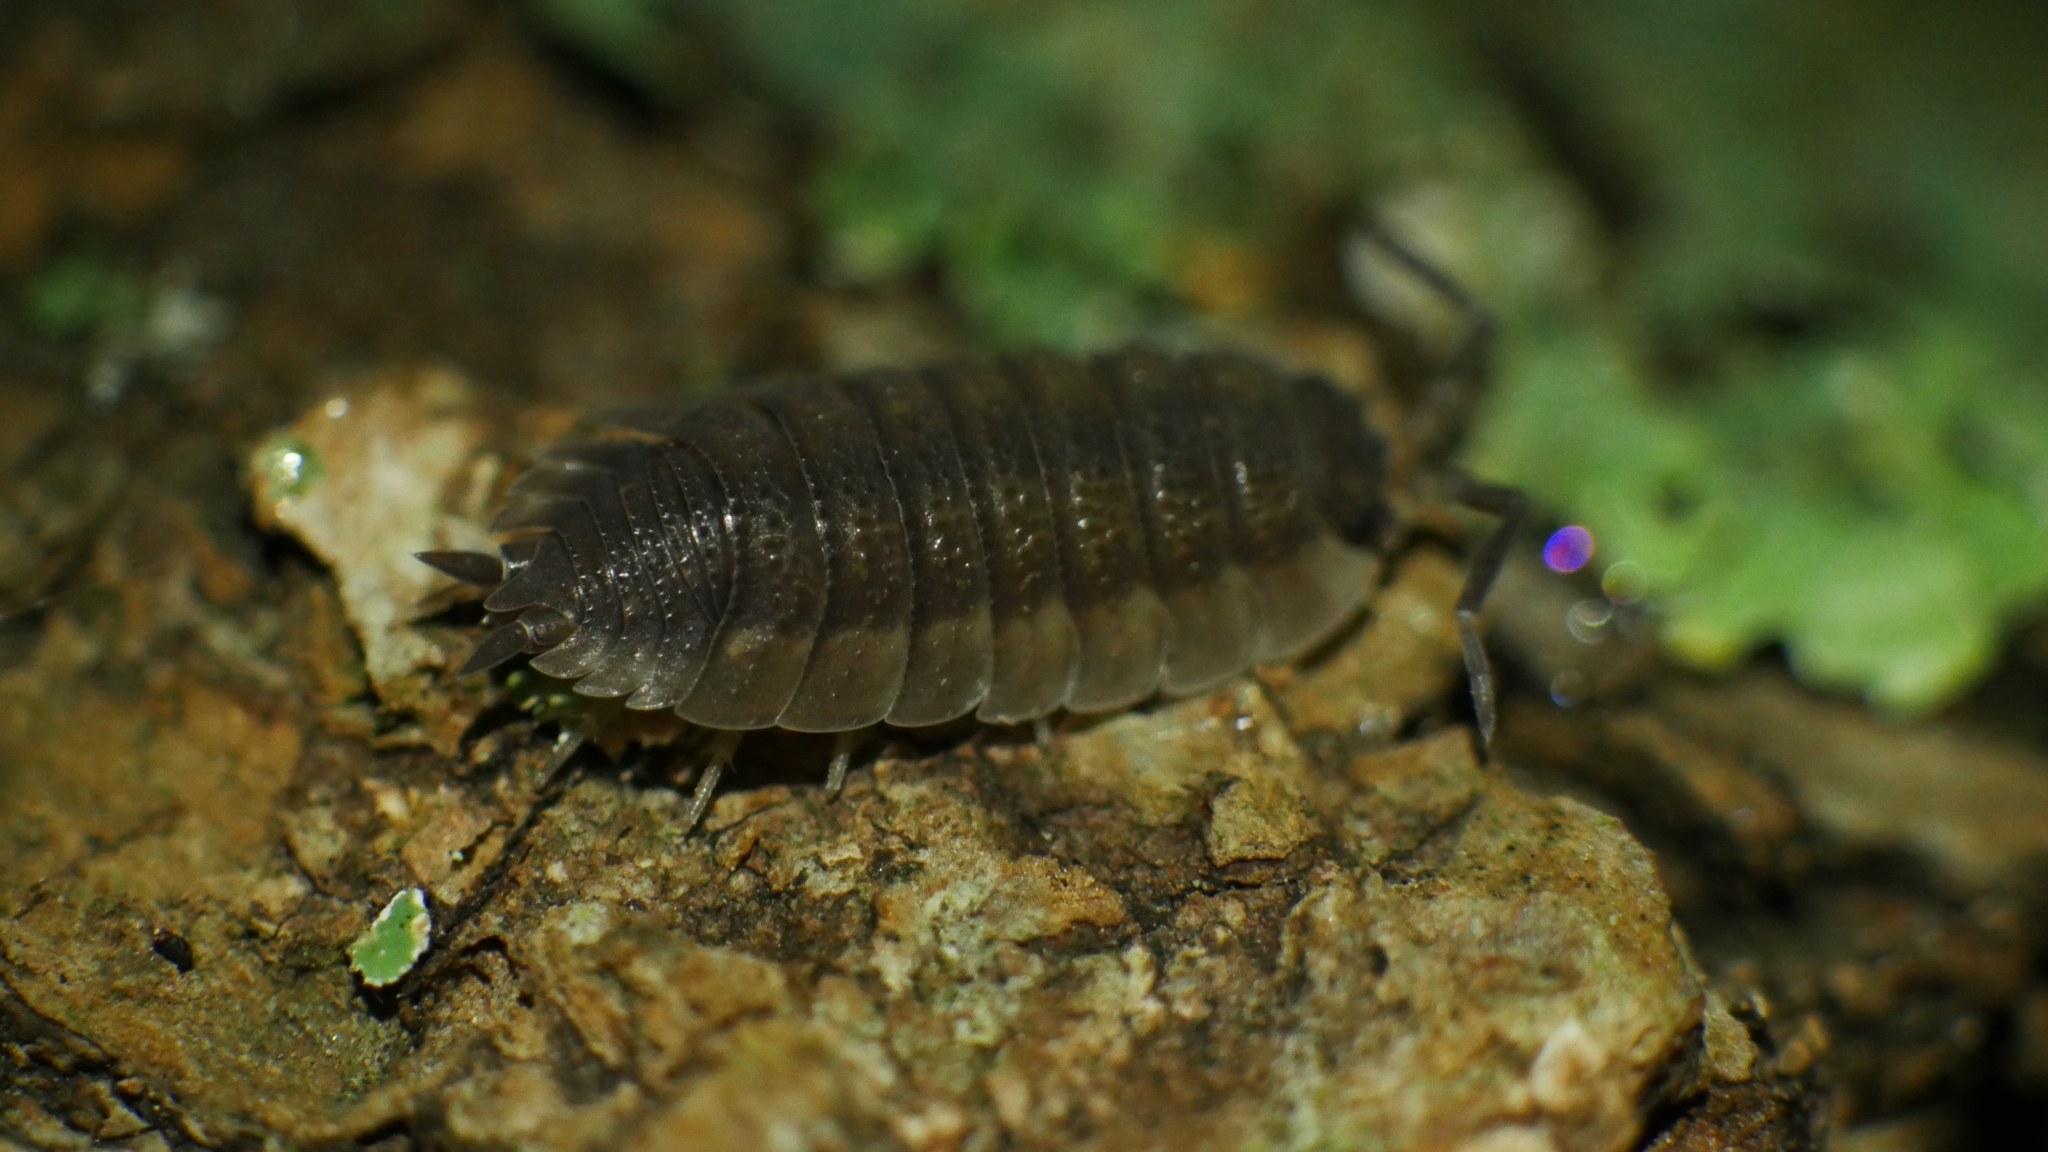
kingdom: Animalia
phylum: Arthropoda
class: Malacostraca
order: Isopoda
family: Porcellionidae
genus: Porcellio
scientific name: Porcellio scaber
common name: Common rough woodlouse
